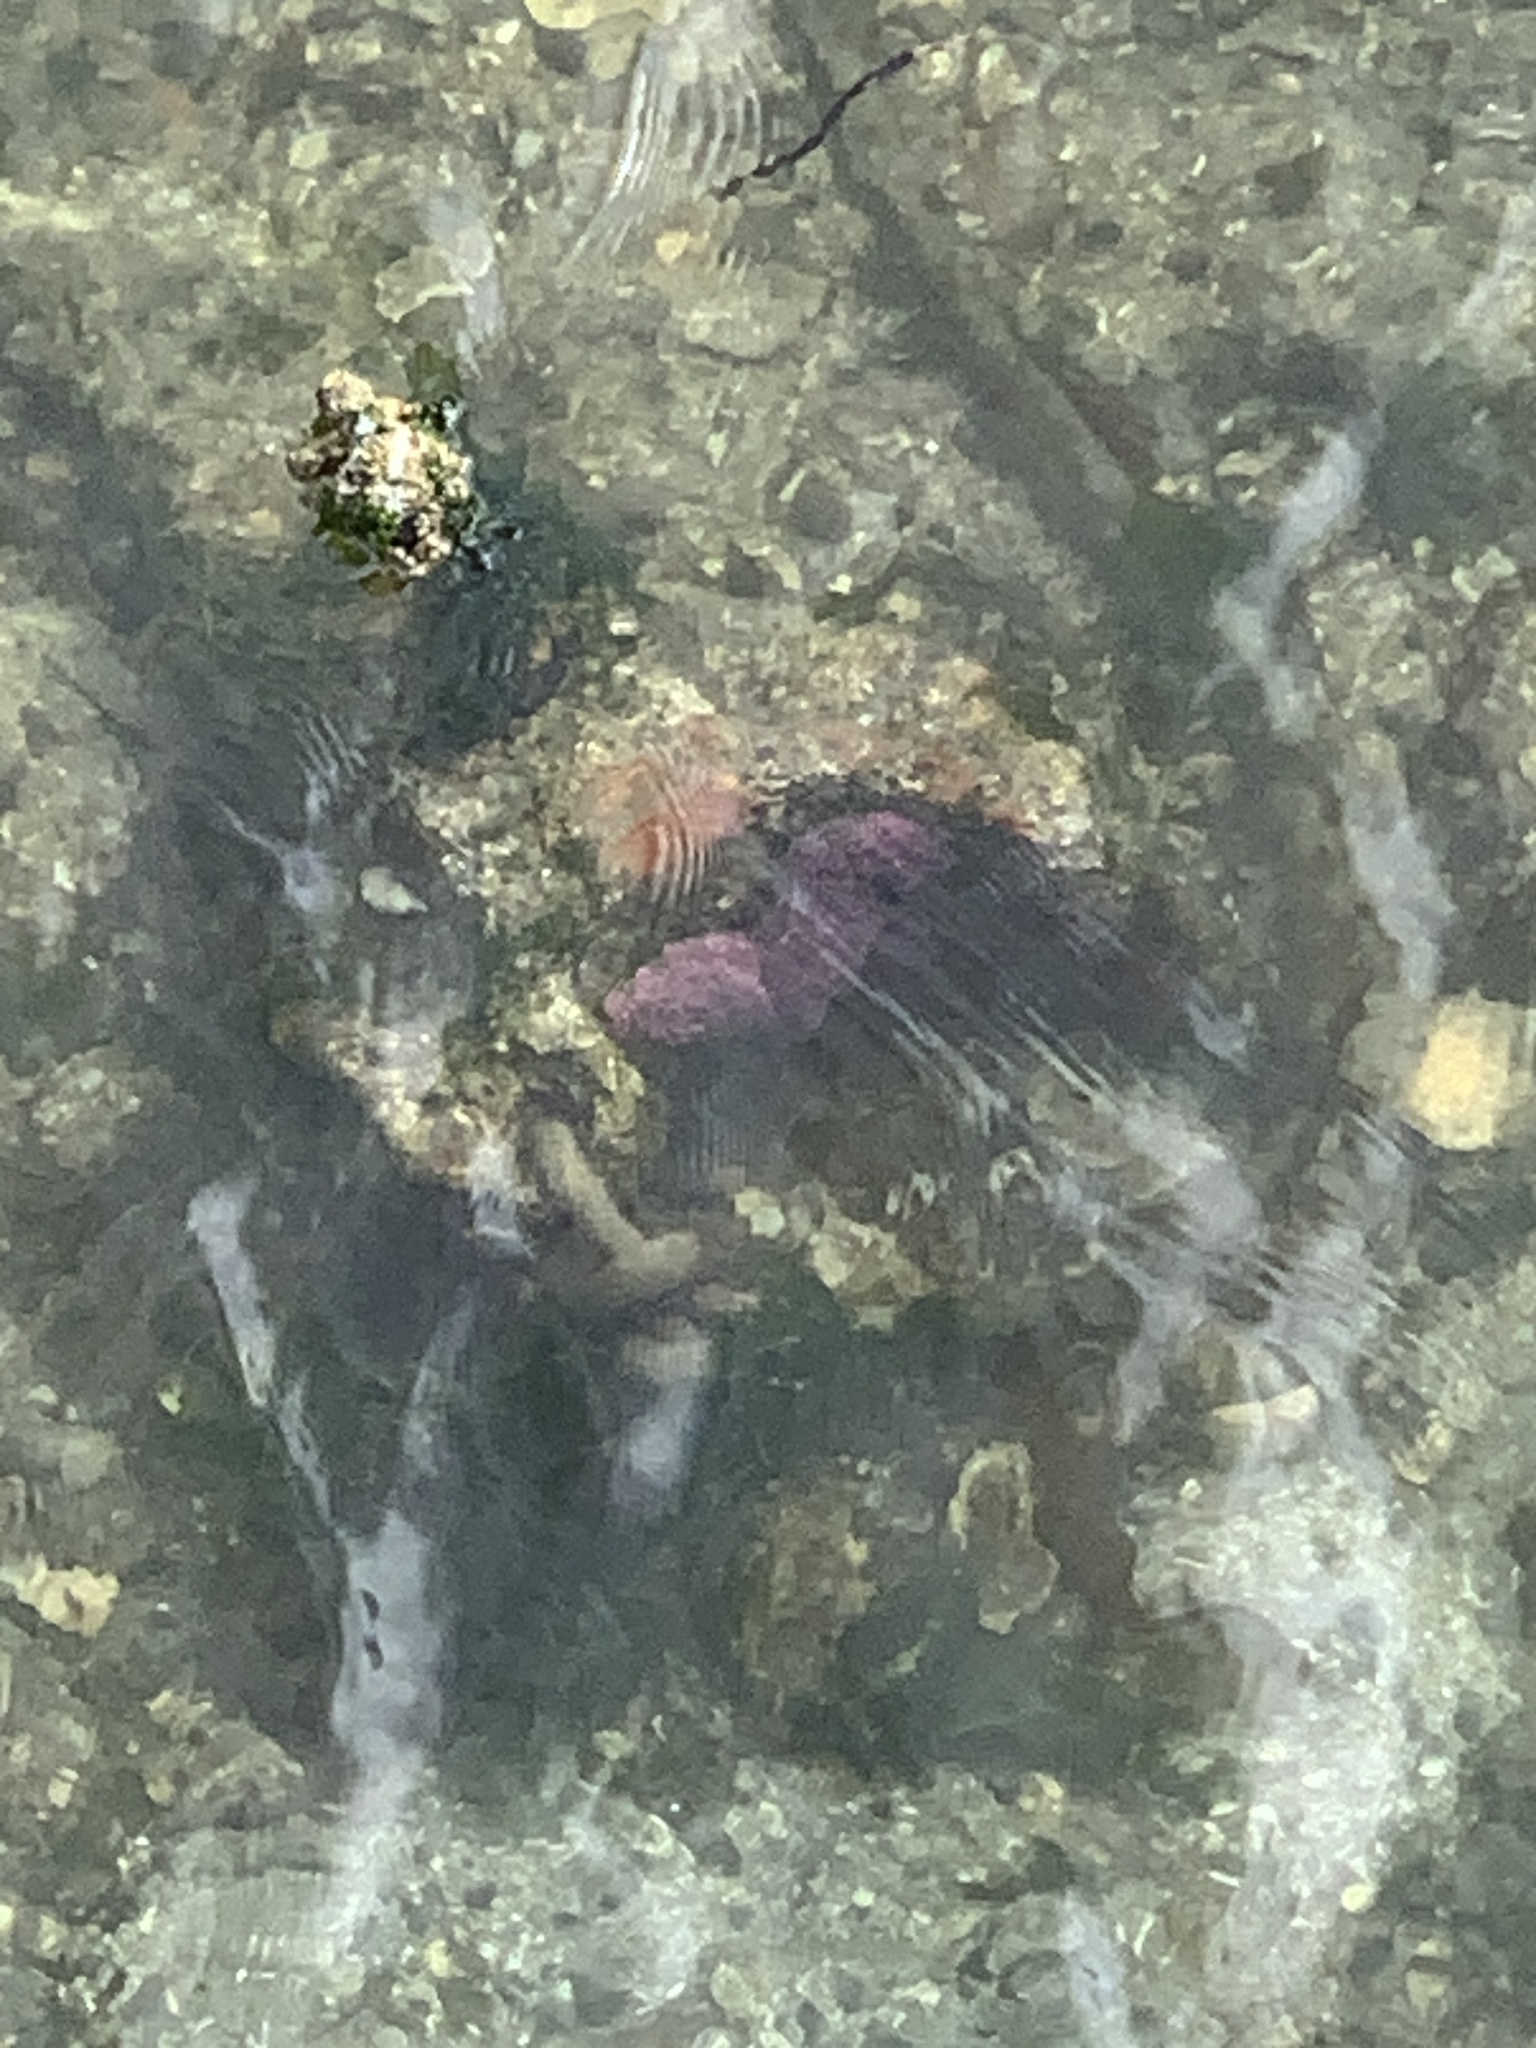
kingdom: Animalia
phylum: Echinodermata
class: Asteroidea
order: Forcipulatida
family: Asteriidae
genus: Pisaster
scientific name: Pisaster ochraceus
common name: Ochre stars
